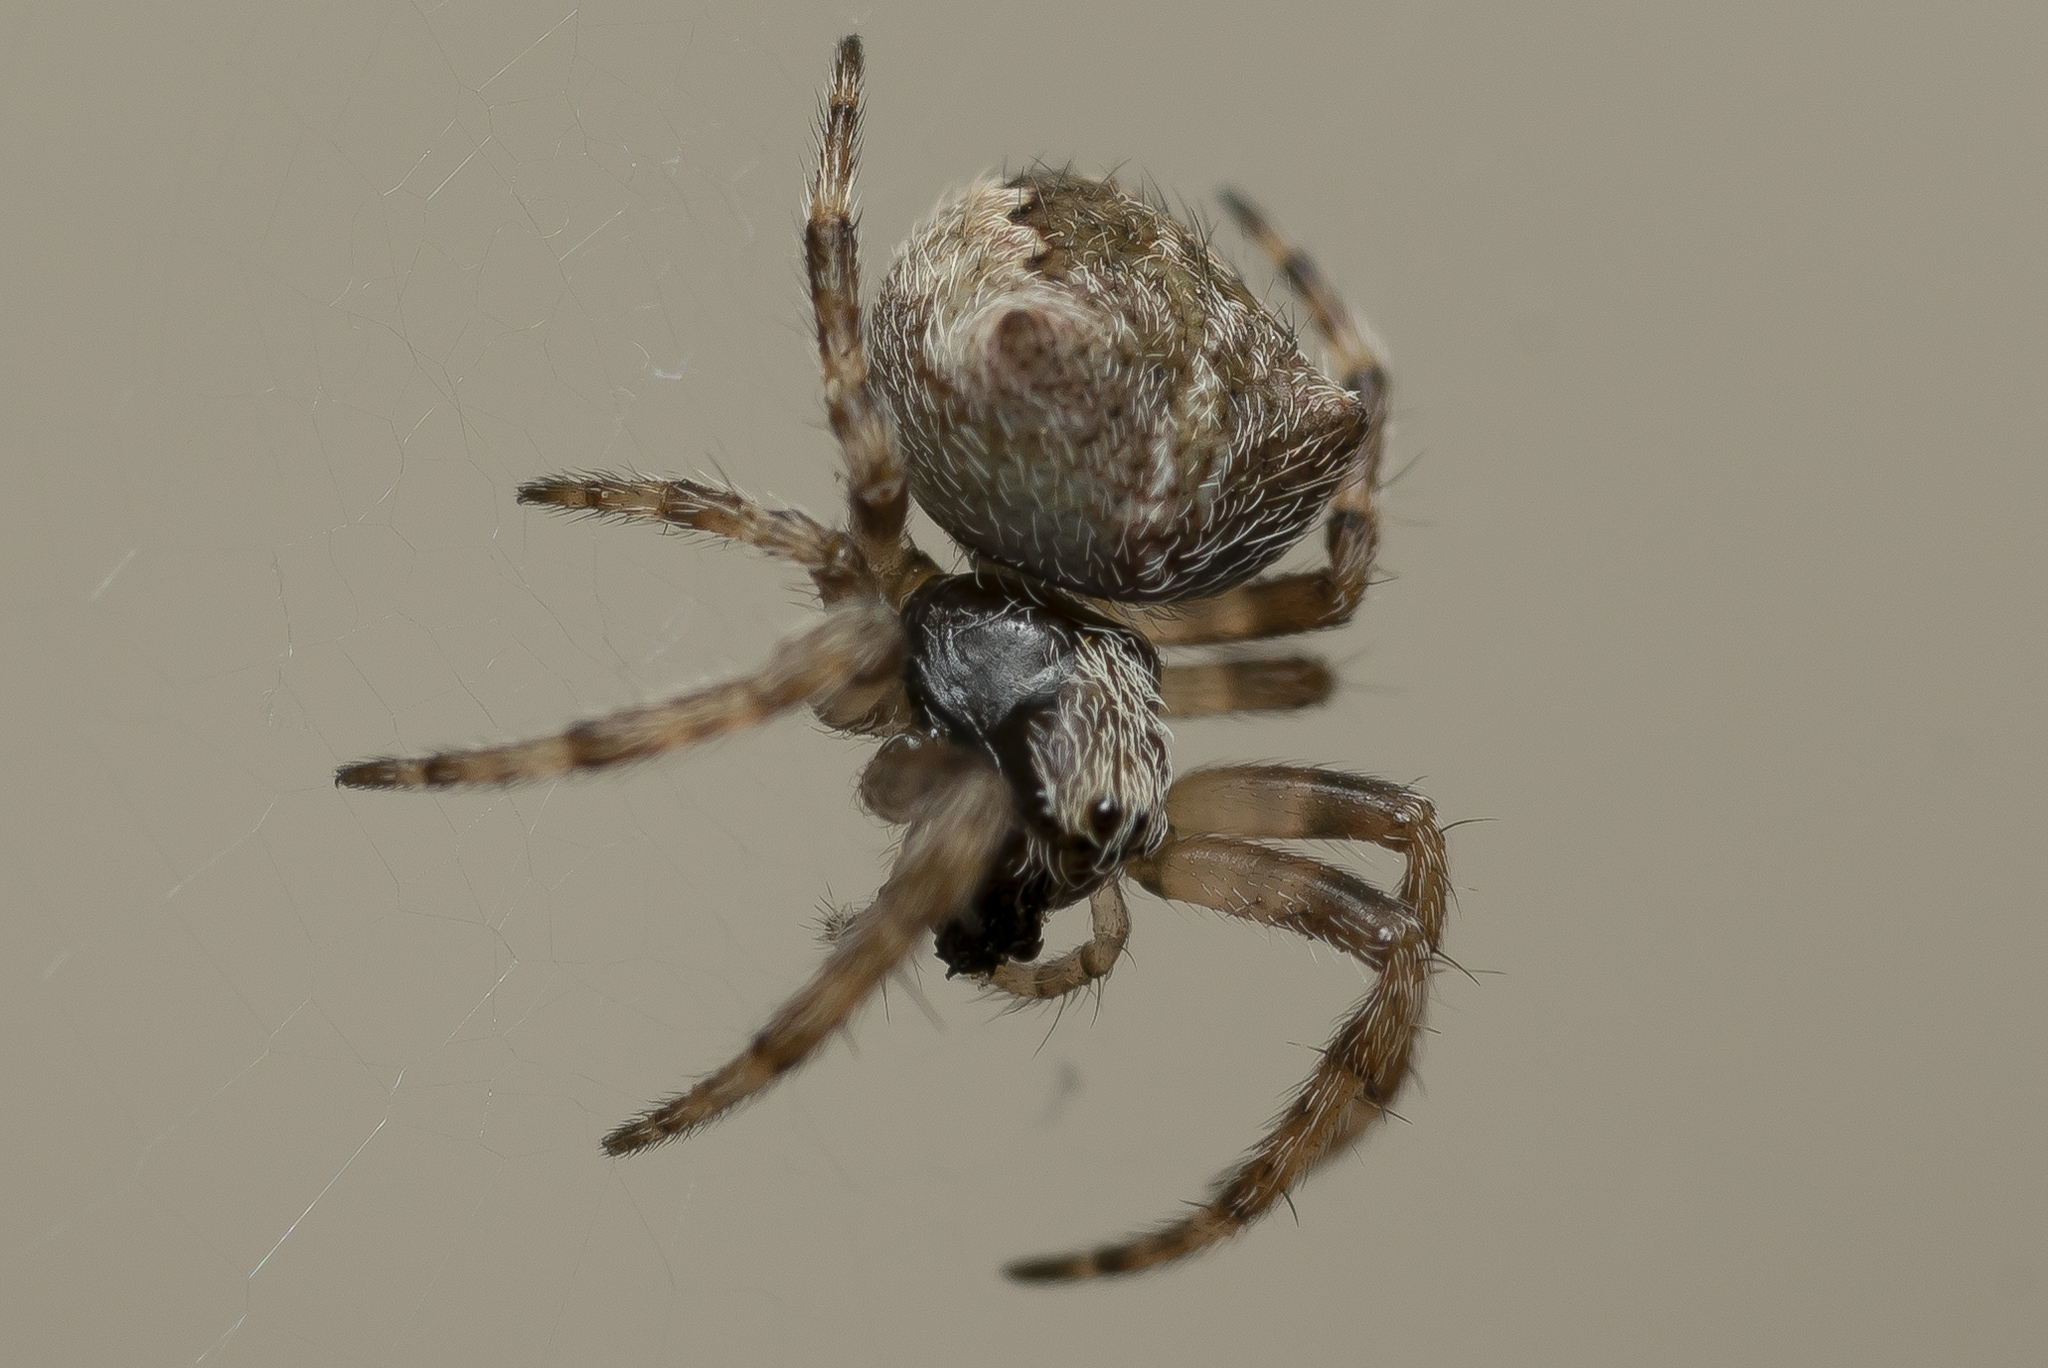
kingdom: Animalia
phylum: Arthropoda
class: Arachnida
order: Araneae
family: Araneidae
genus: Gibbaranea
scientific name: Gibbaranea bituberculata
